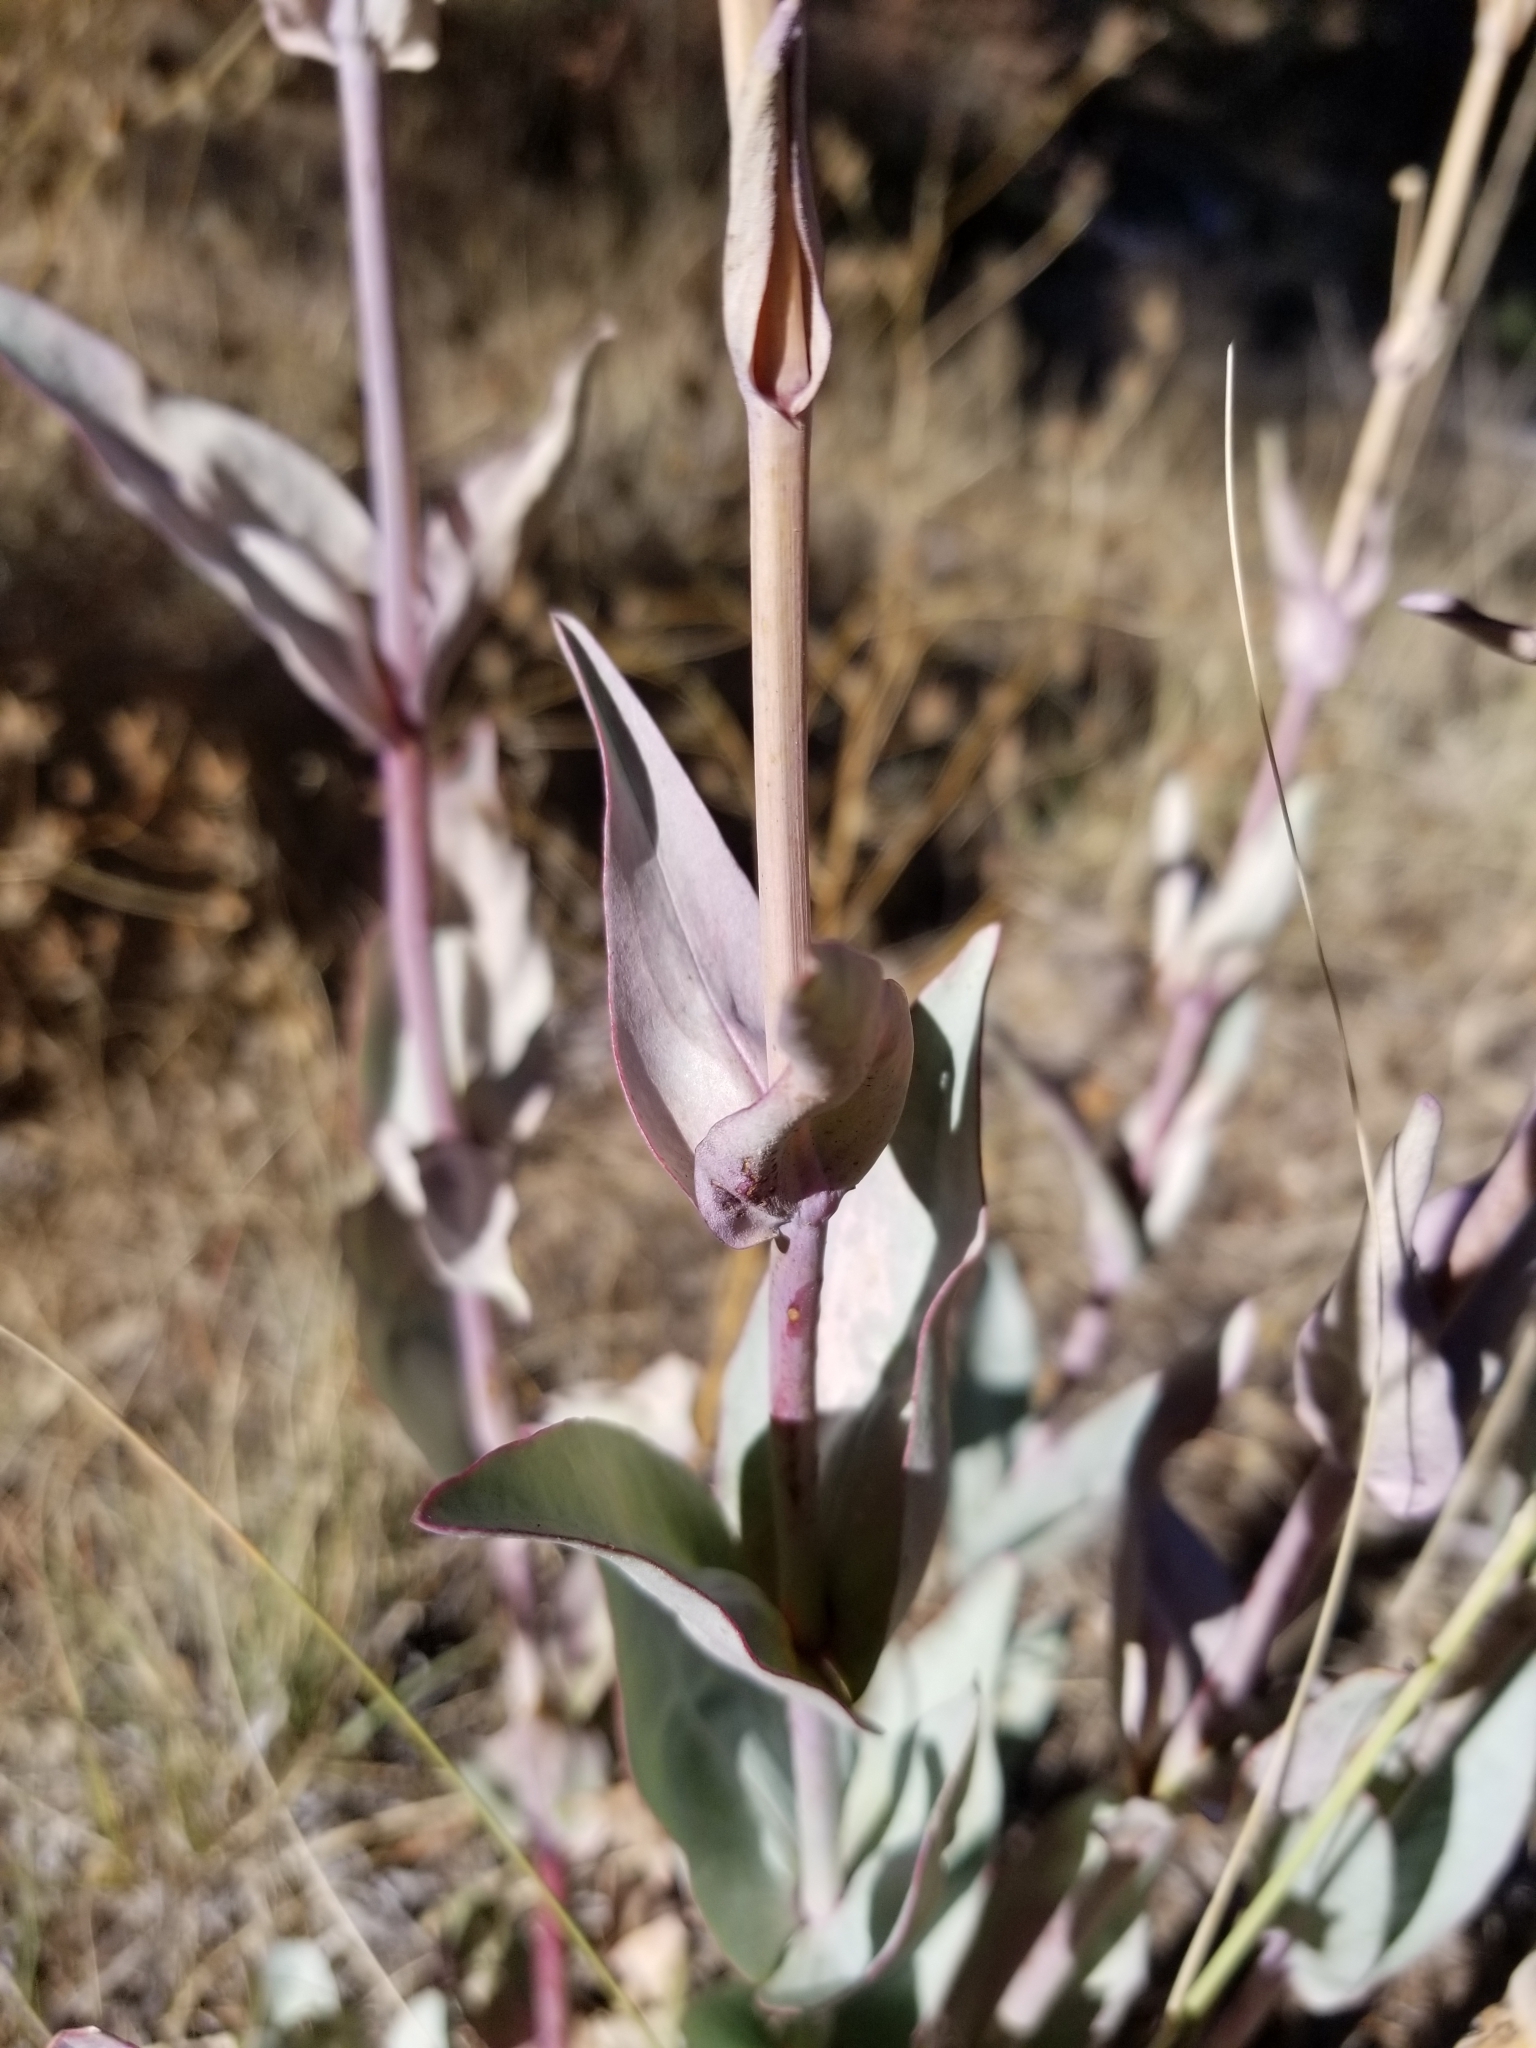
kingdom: Plantae
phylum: Tracheophyta
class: Magnoliopsida
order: Lamiales
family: Plantaginaceae
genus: Penstemon
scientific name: Penstemon centranthifolius
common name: Scarlet bugler
